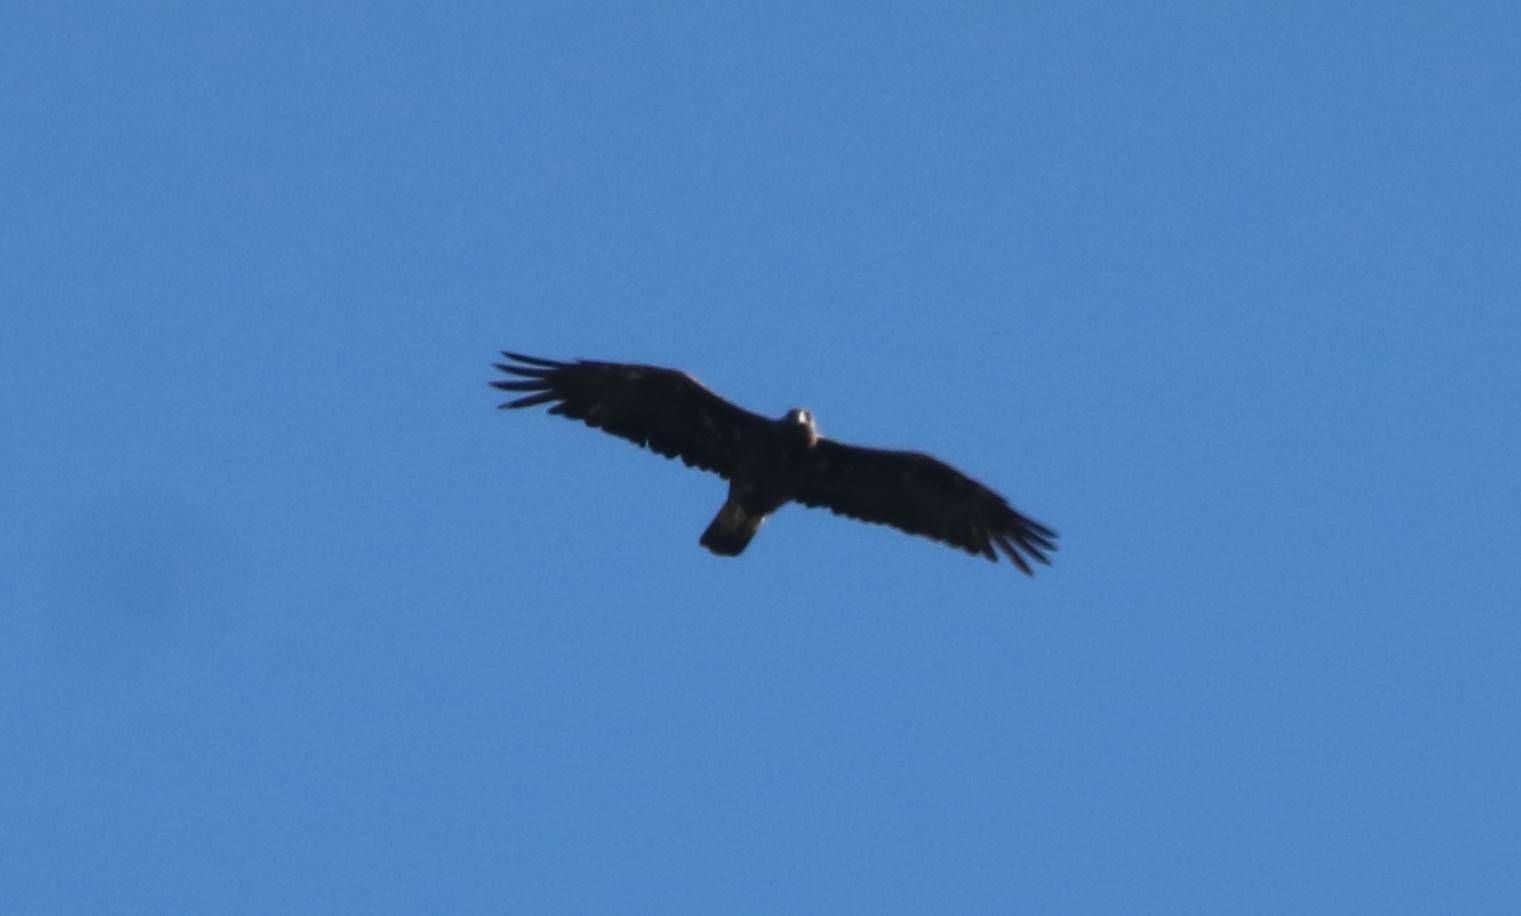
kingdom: Animalia
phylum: Chordata
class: Aves
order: Accipitriformes
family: Accipitridae
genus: Aquila
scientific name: Aquila chrysaetos
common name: Golden eagle
